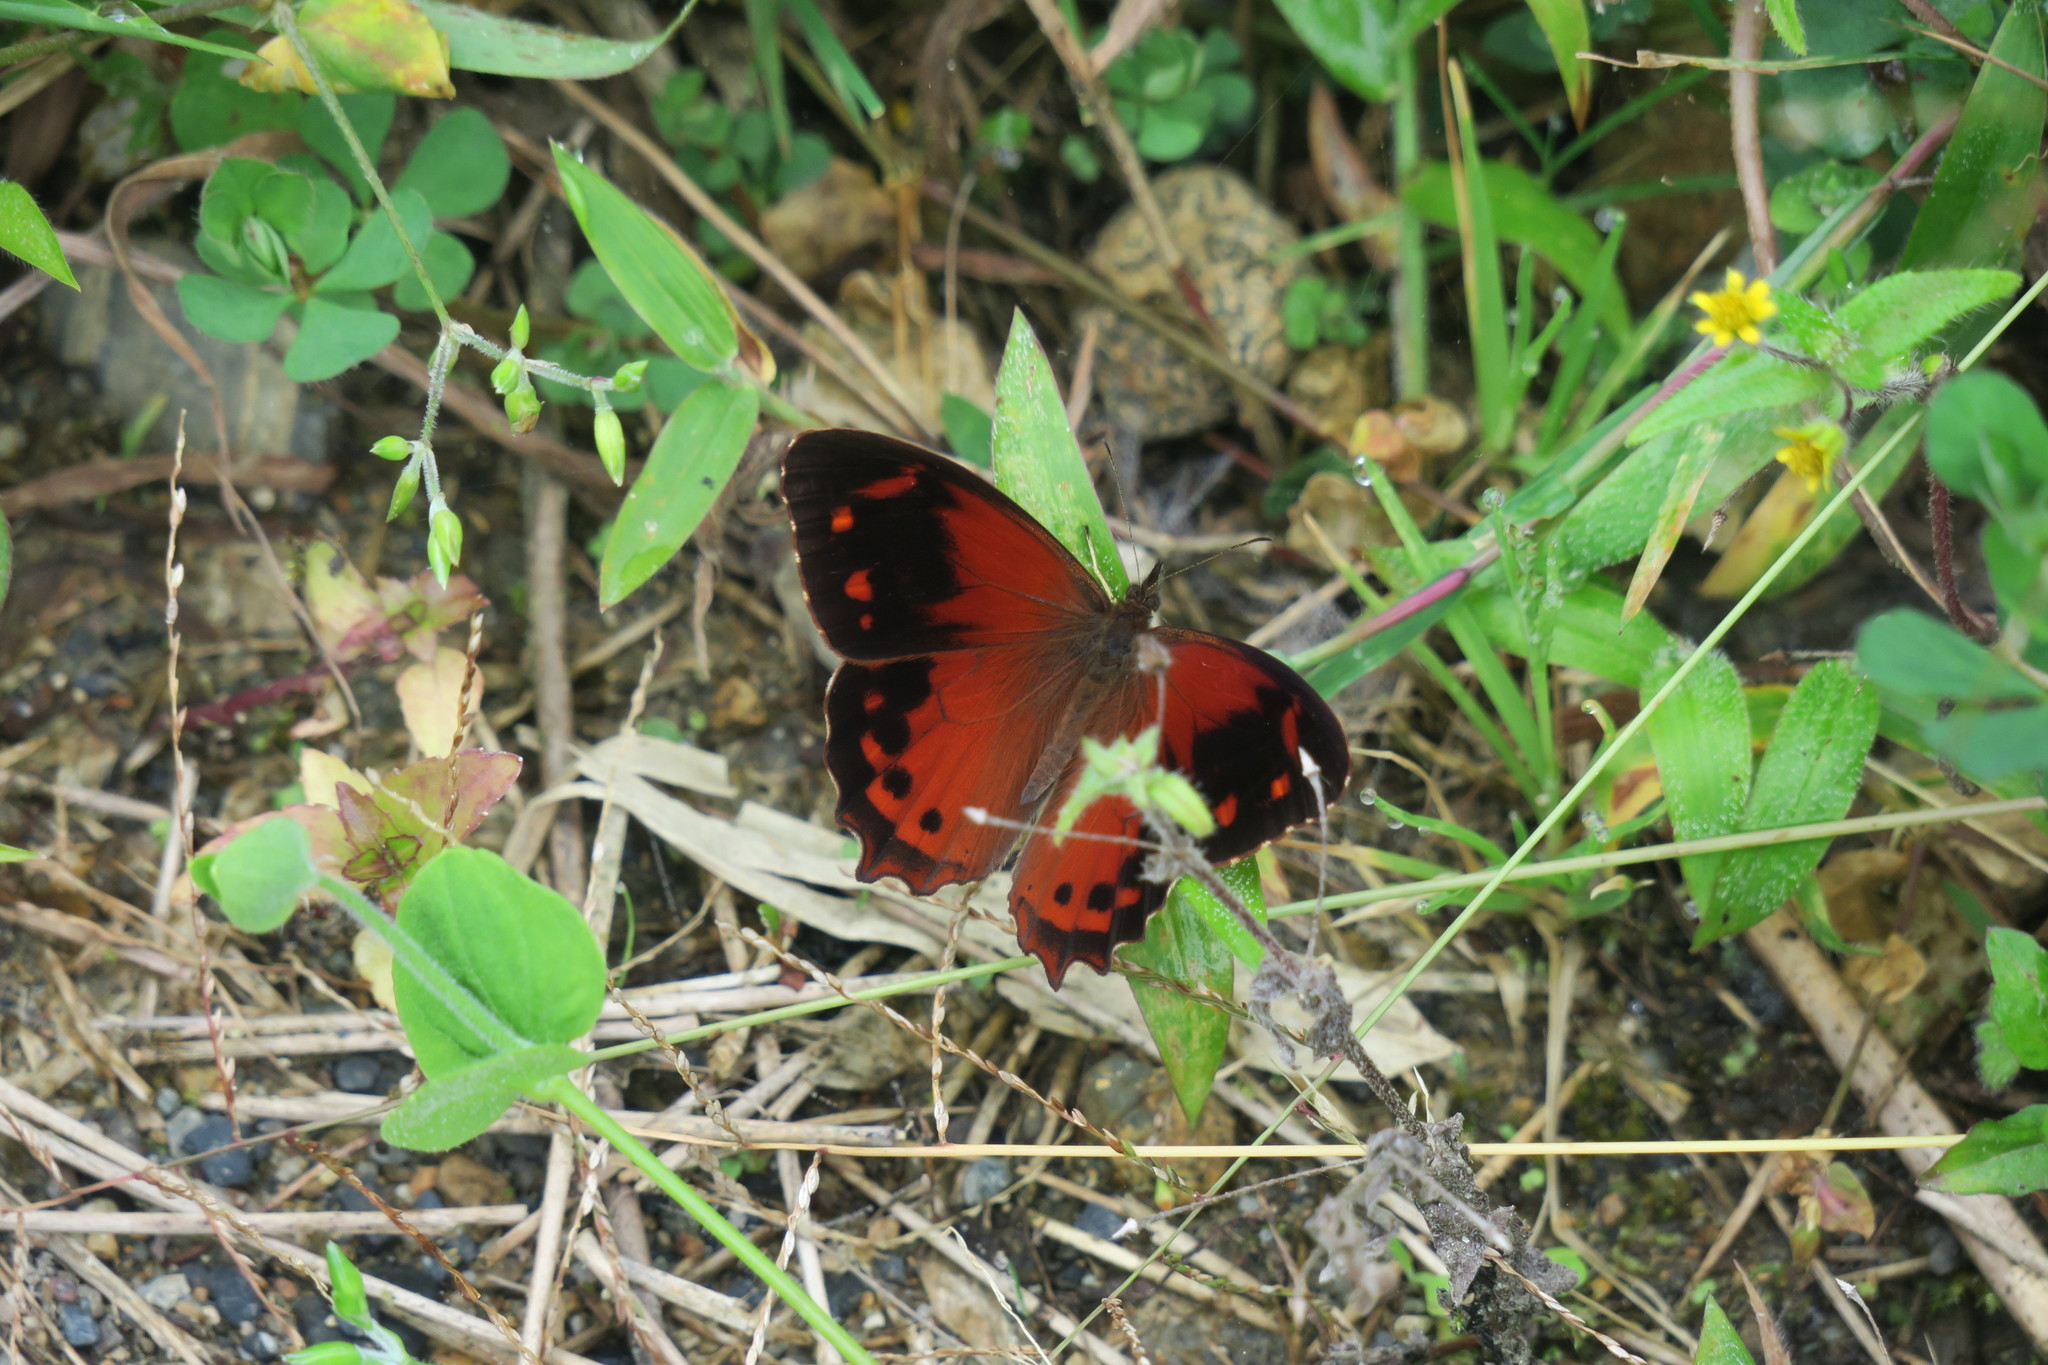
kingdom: Animalia
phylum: Arthropoda
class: Insecta
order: Lepidoptera
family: Nymphalidae
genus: Lasiophila
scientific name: Lasiophila orbifera
